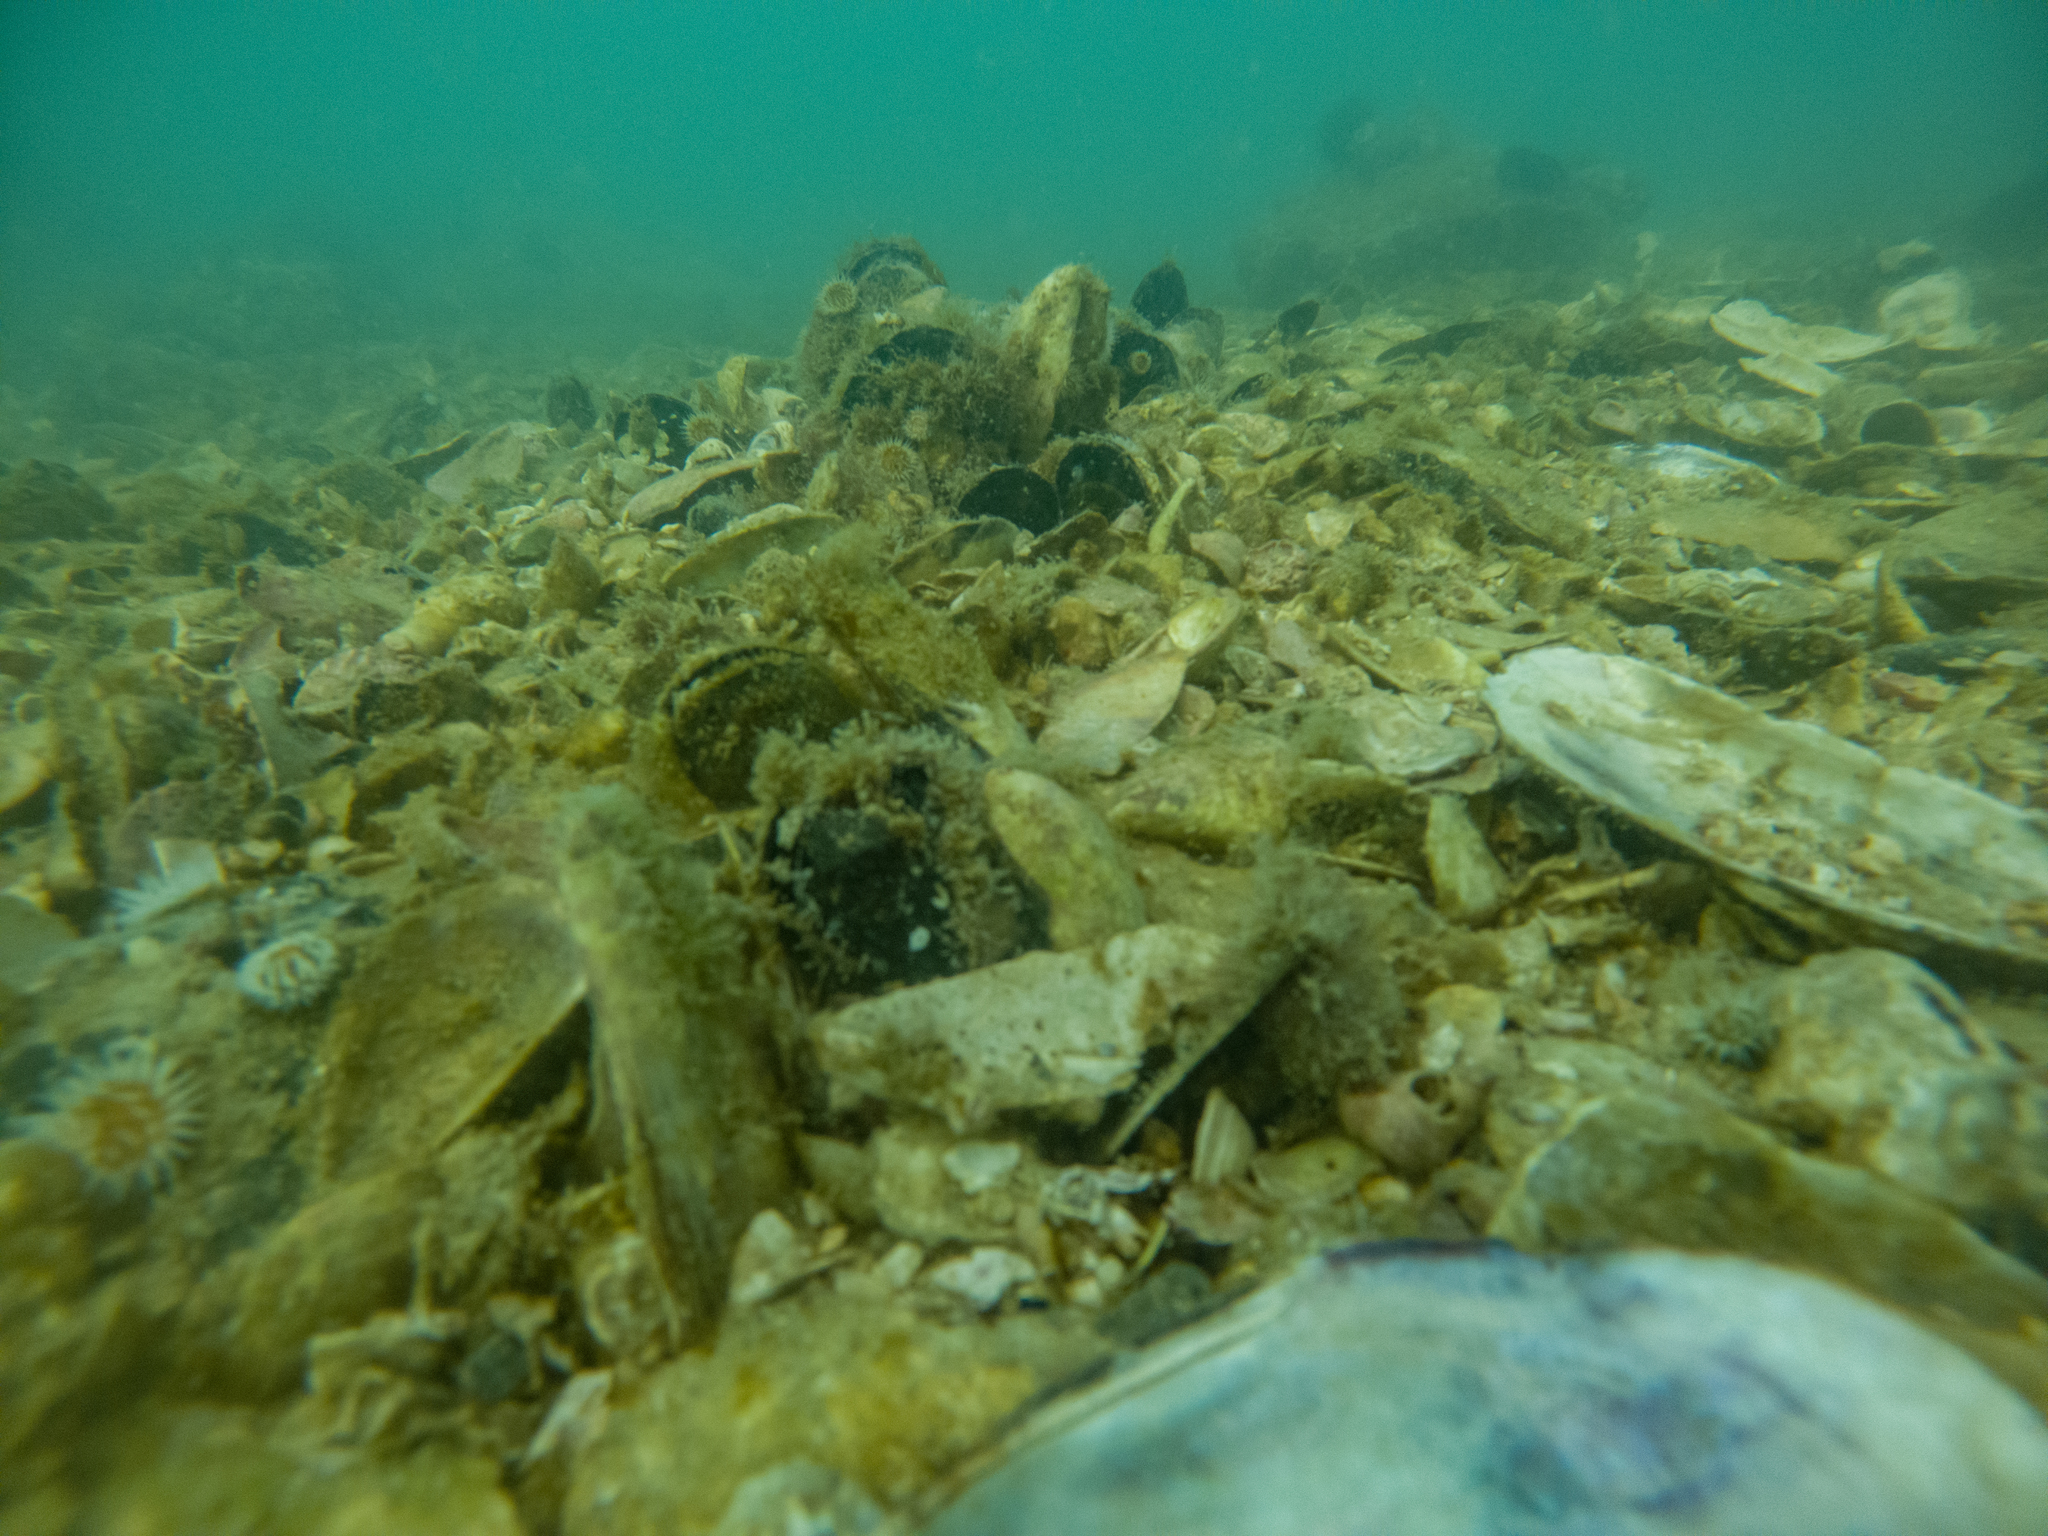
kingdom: Animalia
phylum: Mollusca
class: Bivalvia
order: Mytilida
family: Mytilidae
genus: Perna
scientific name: Perna canaliculus
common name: New zealand greenshelltm
